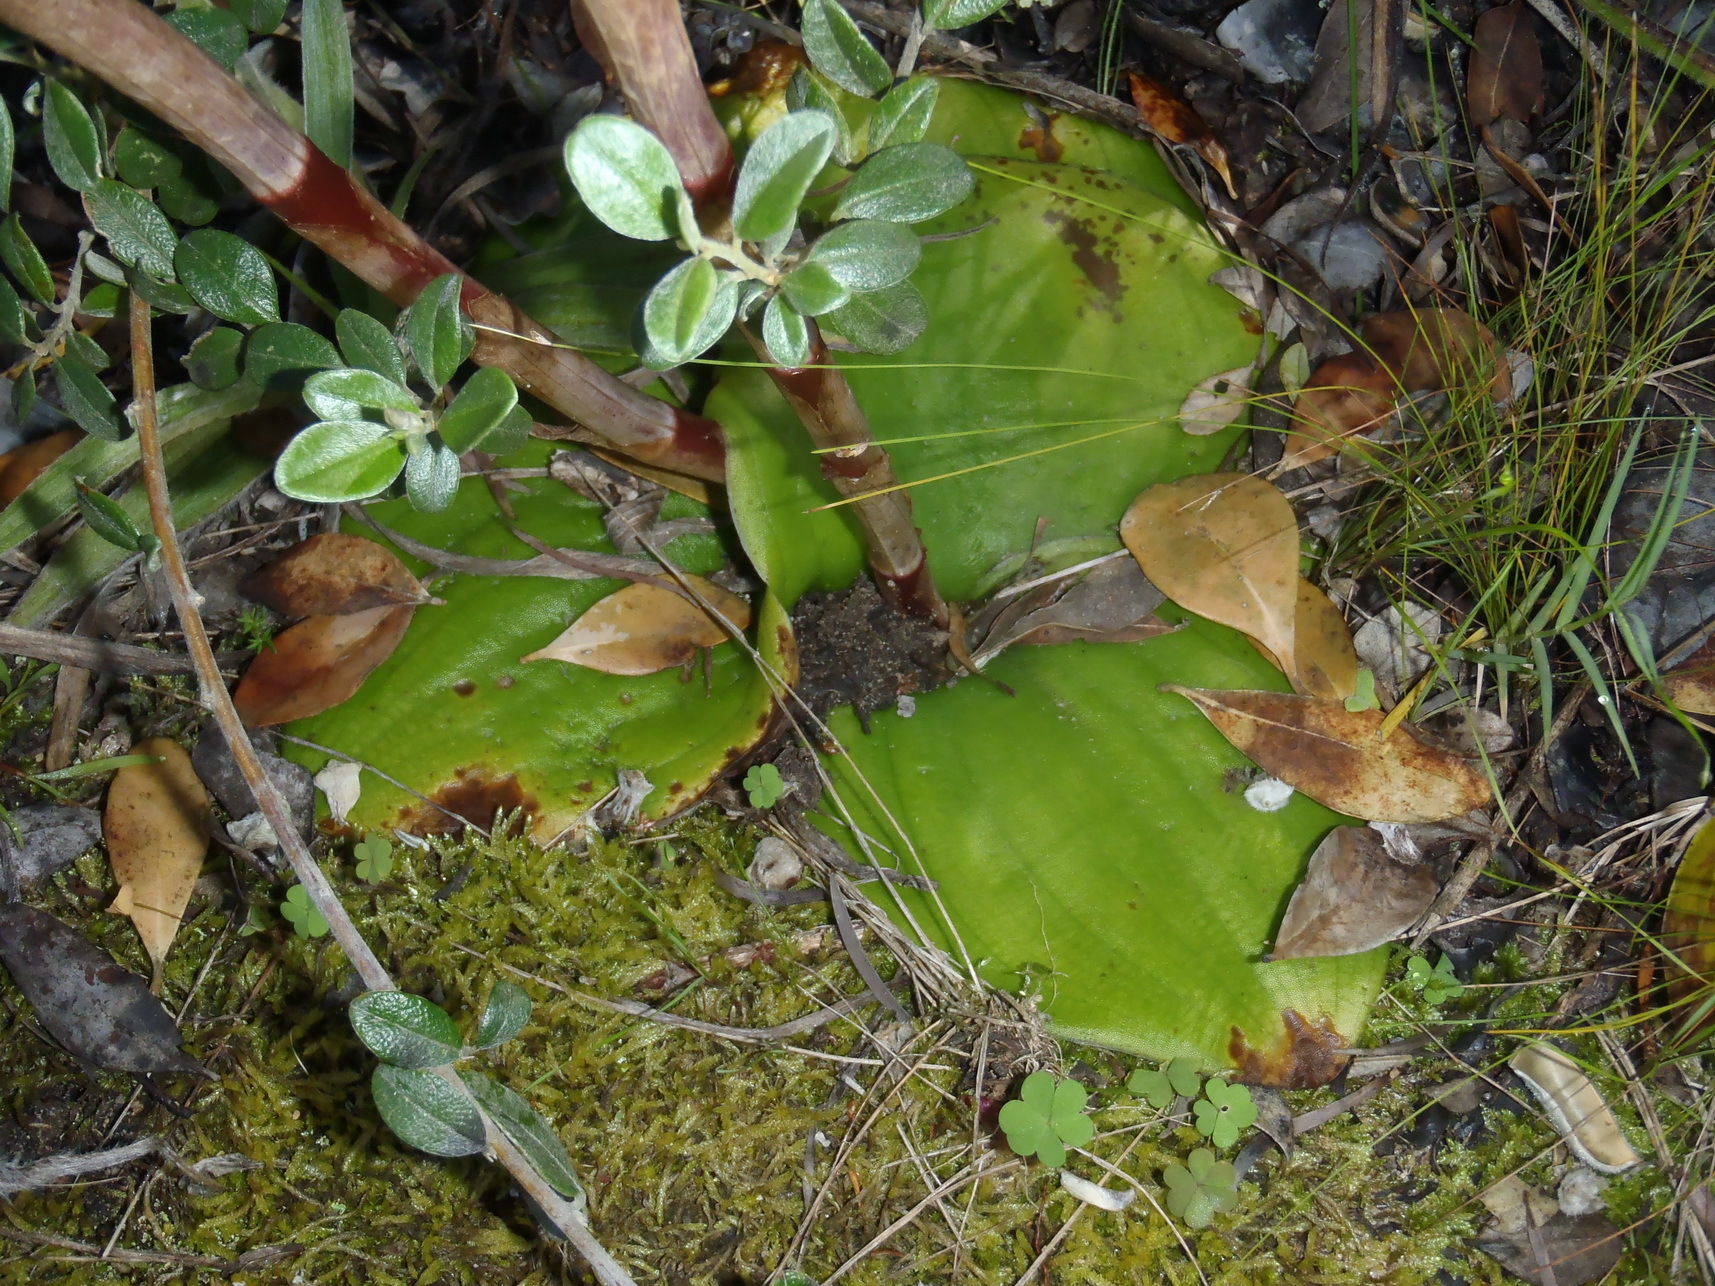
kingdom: Plantae
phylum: Tracheophyta
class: Liliopsida
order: Asparagales
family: Orchidaceae
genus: Satyrium
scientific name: Satyrium princeps
